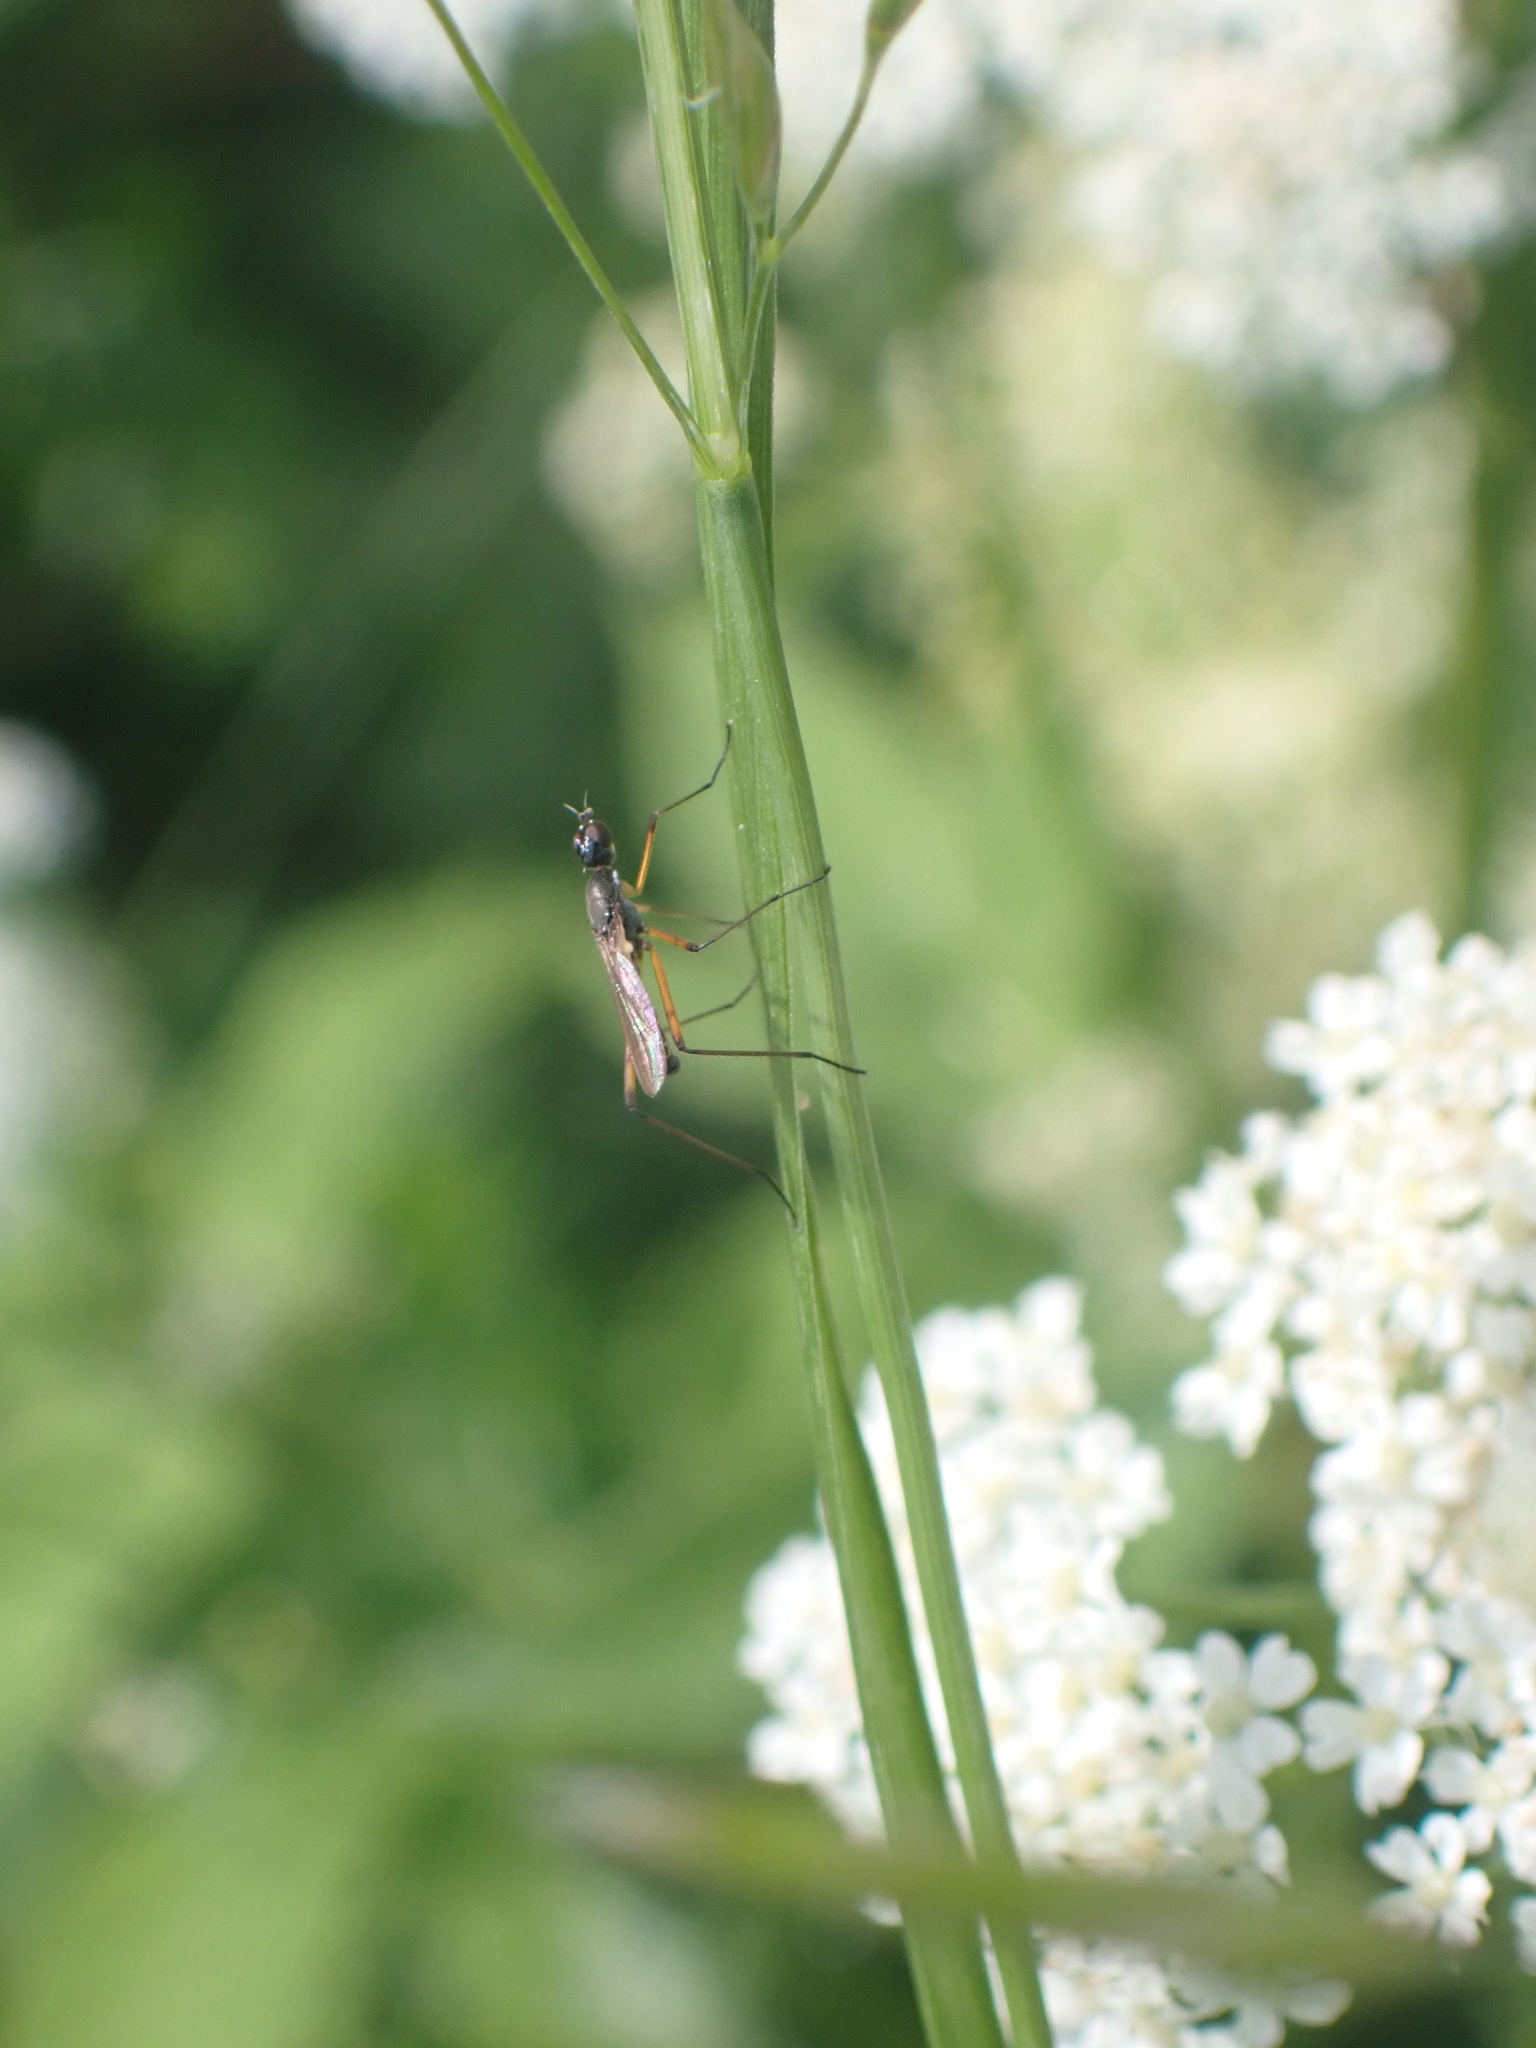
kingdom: Animalia
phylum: Arthropoda
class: Insecta
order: Diptera
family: Micropezidae
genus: Micropeza
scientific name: Micropeza corrigiolata
